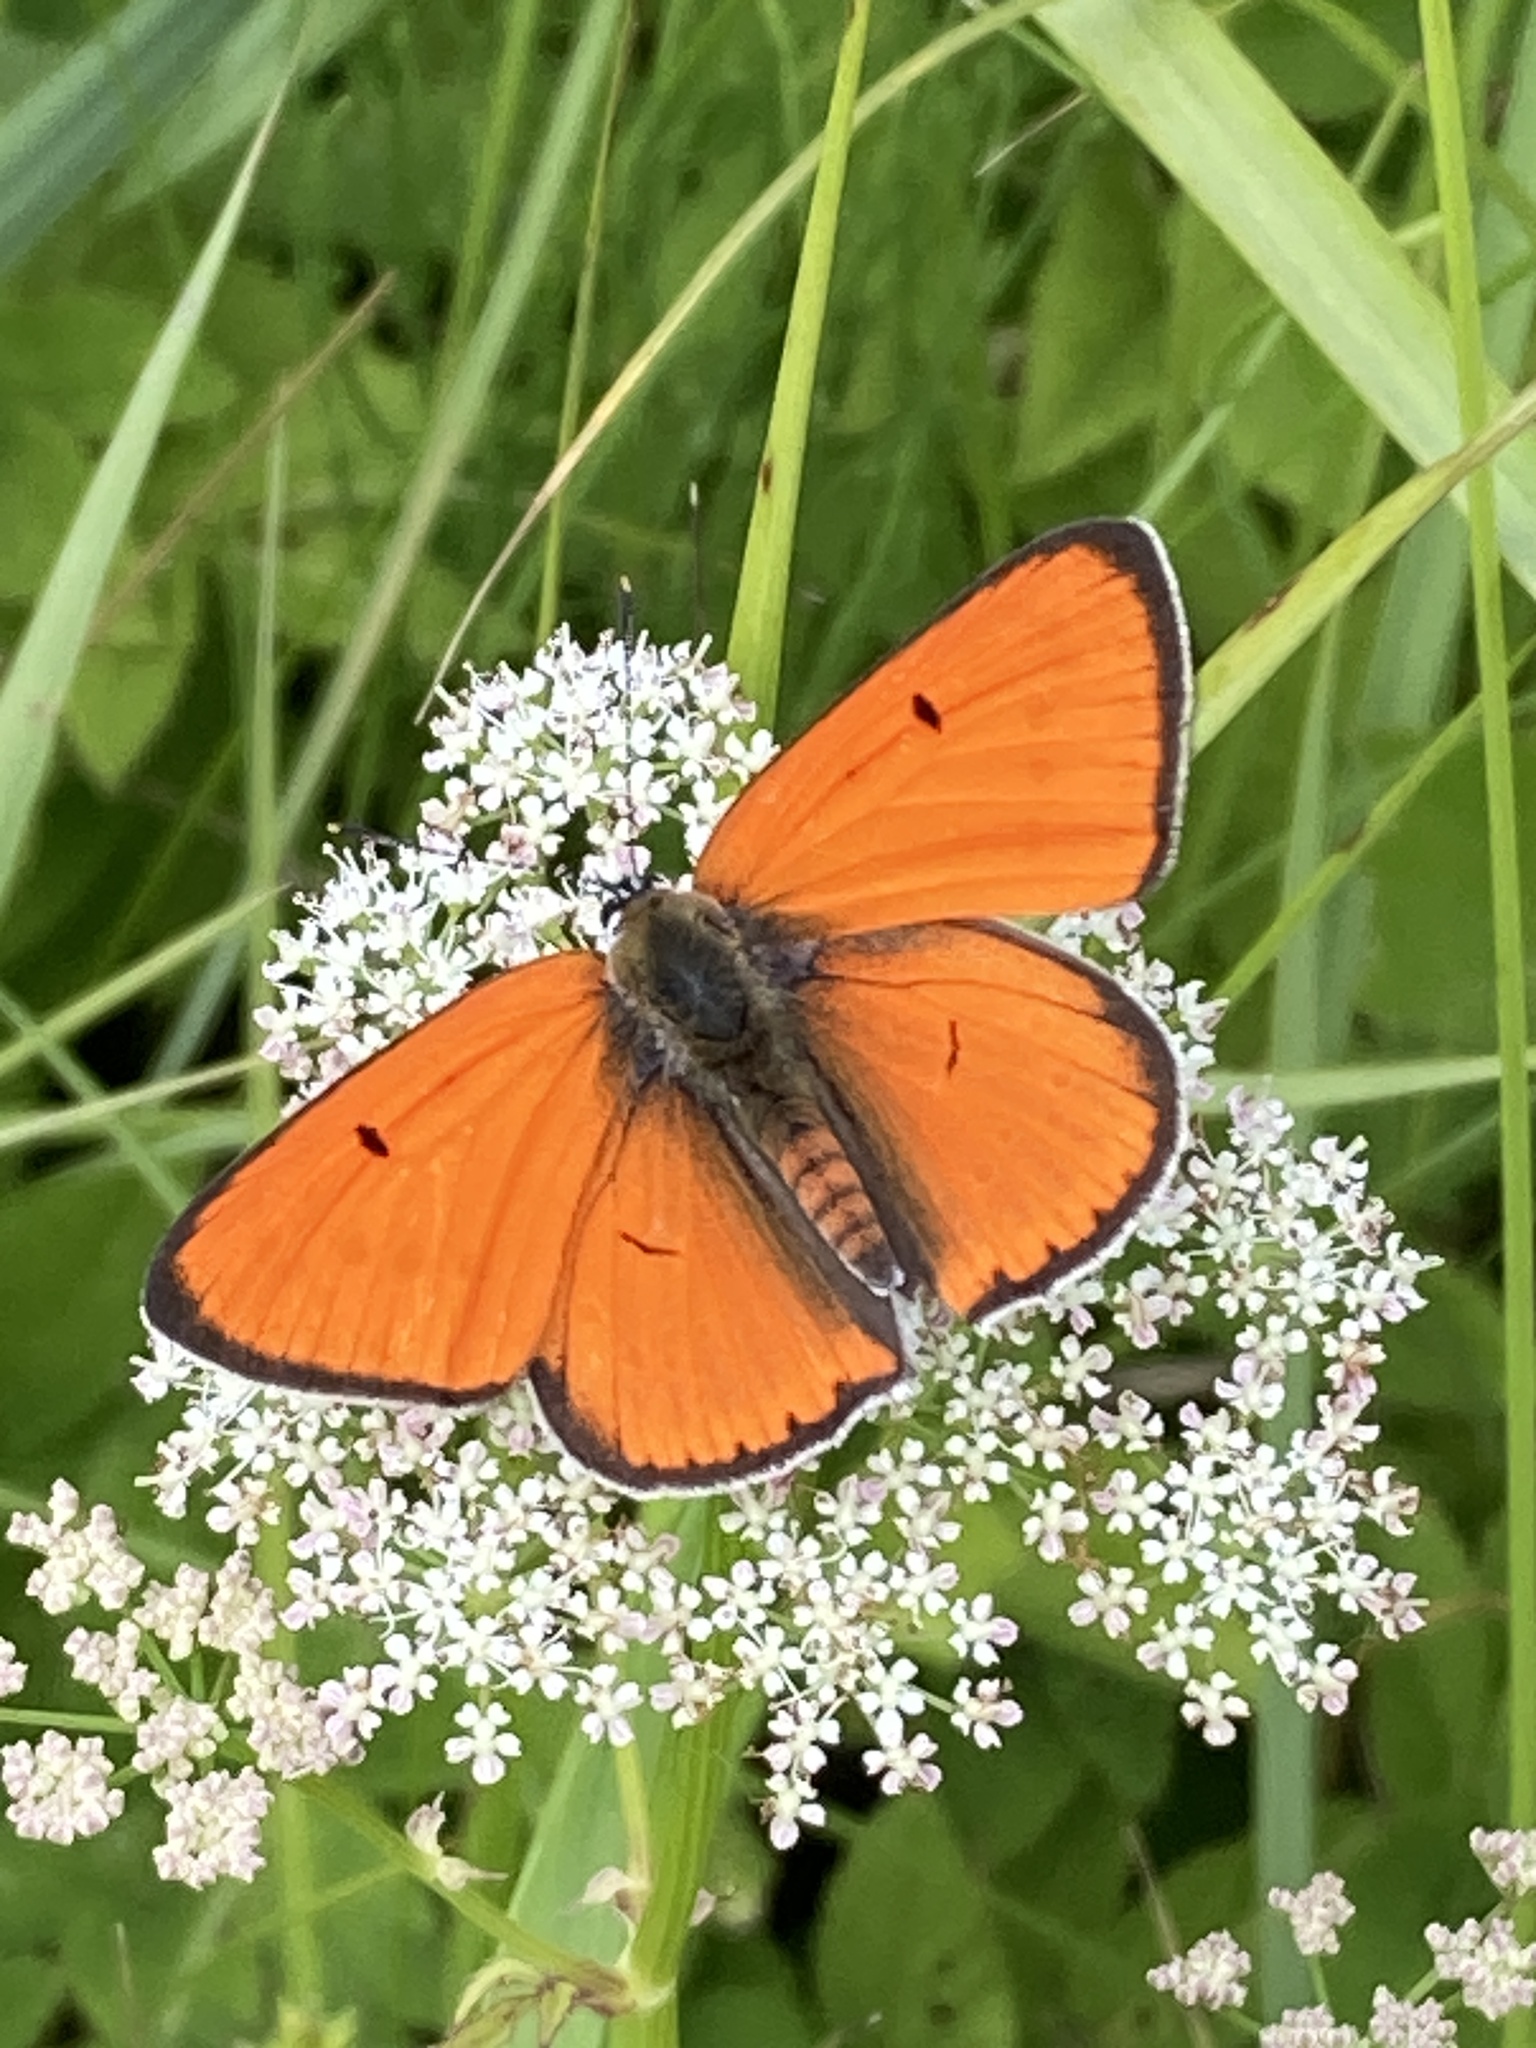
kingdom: Animalia
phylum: Arthropoda
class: Insecta
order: Lepidoptera
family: Lycaenidae
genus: Lycaena
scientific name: Lycaena dispar
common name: Large copper
